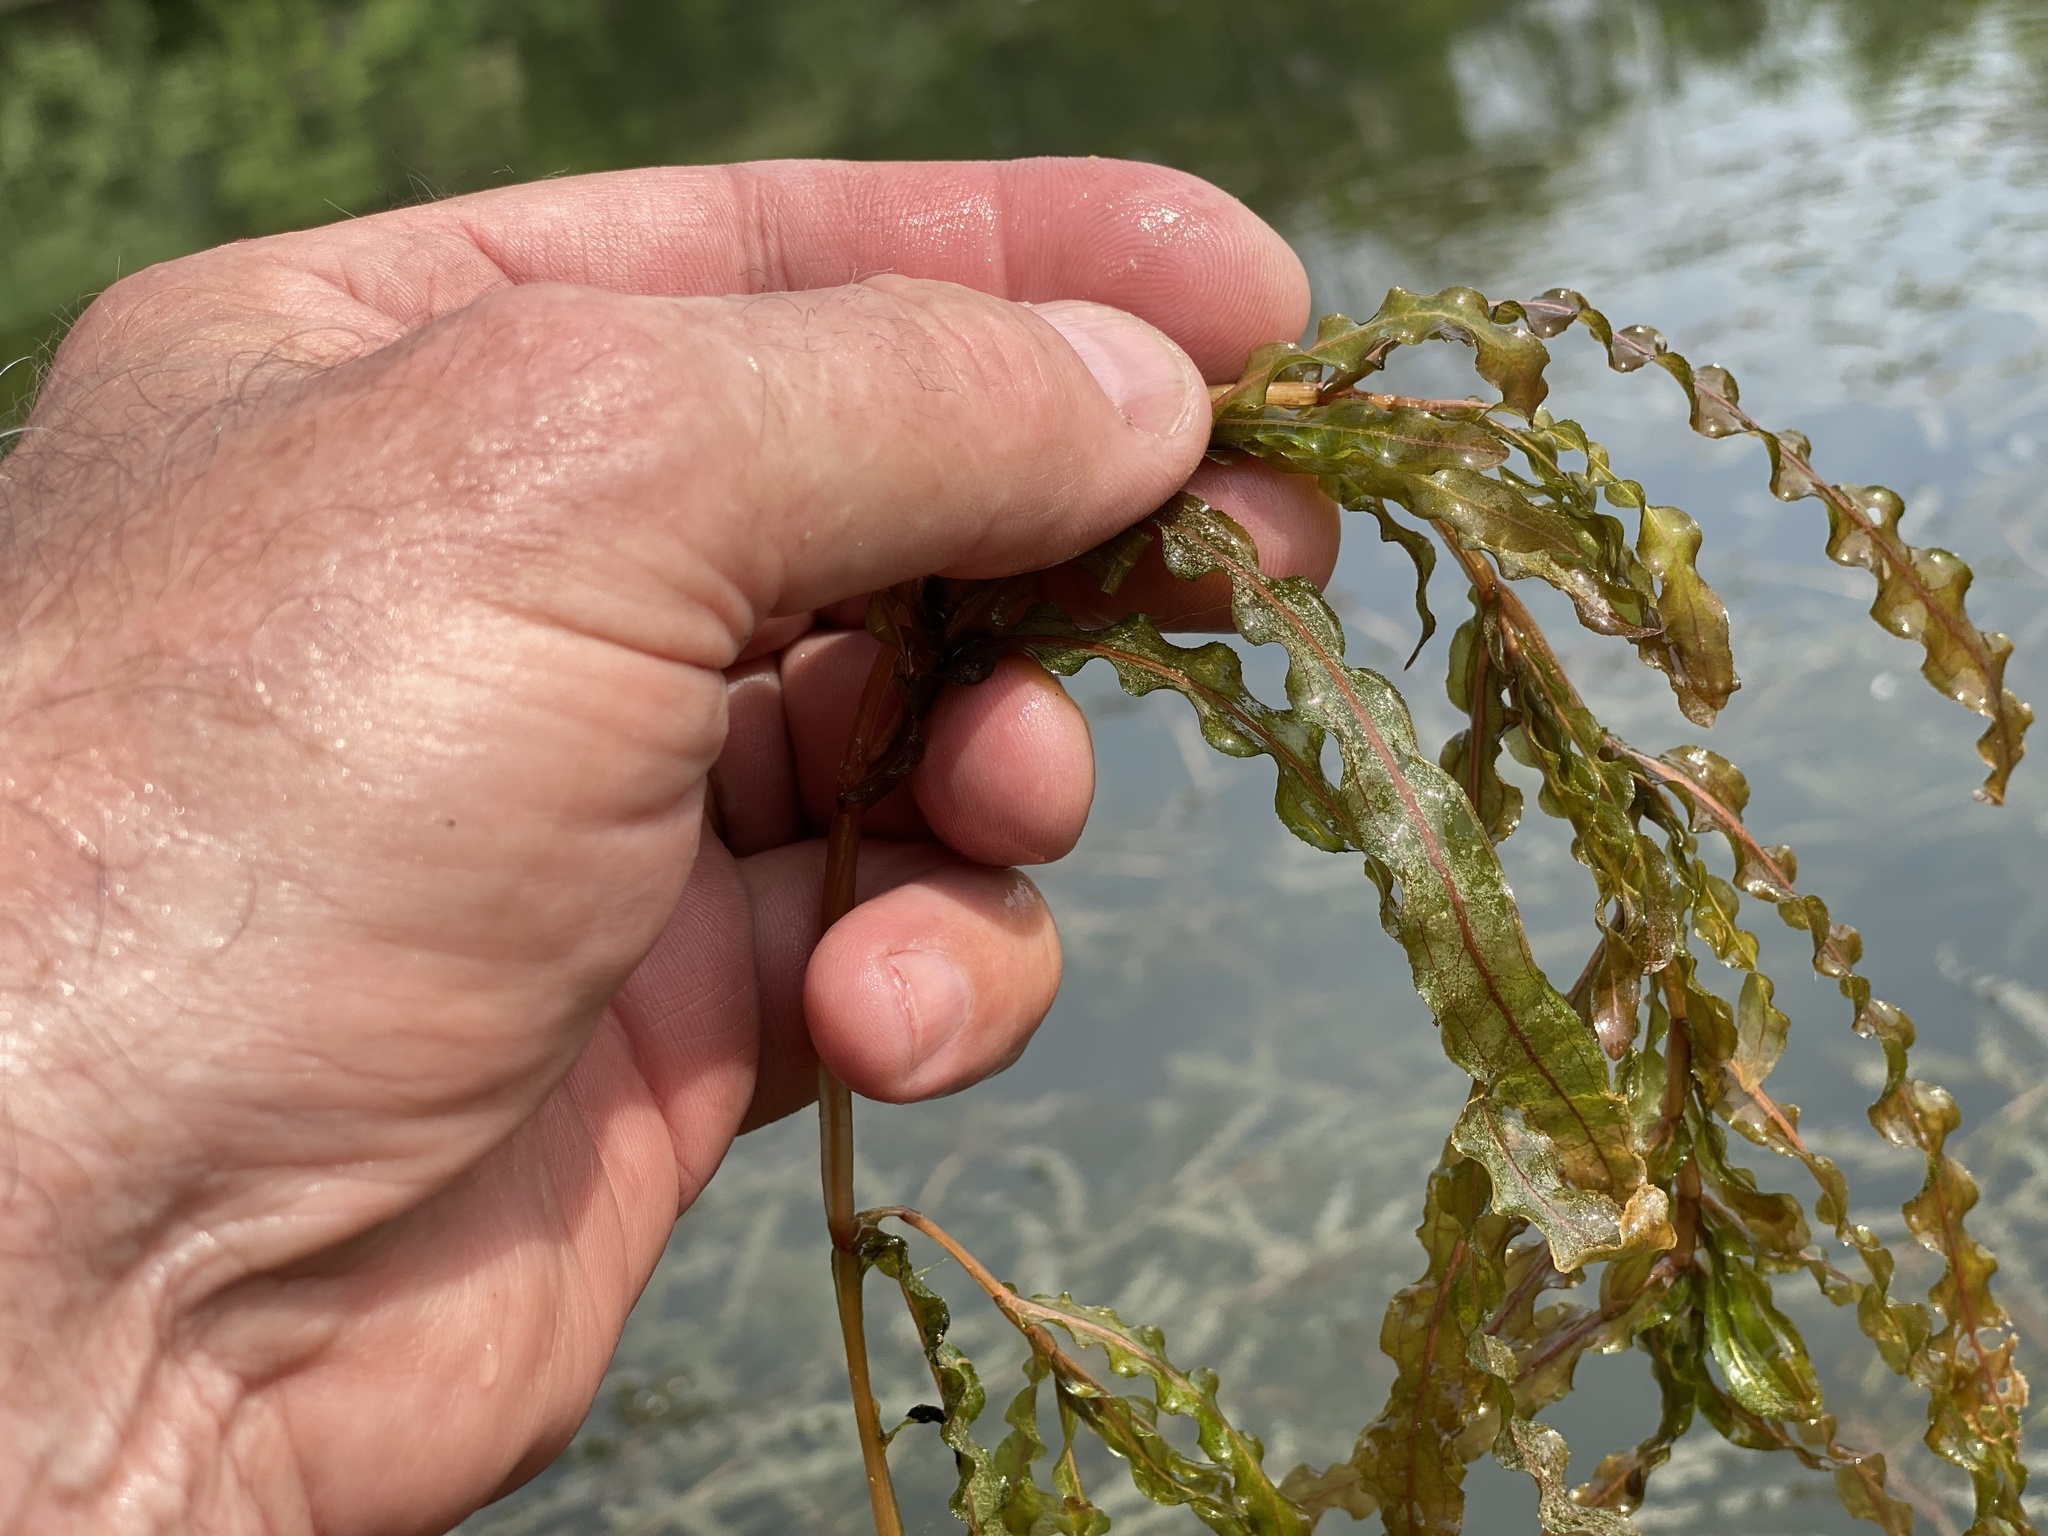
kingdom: Plantae
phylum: Tracheophyta
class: Liliopsida
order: Alismatales
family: Potamogetonaceae
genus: Potamogeton
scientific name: Potamogeton crispus
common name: Curled pondweed
